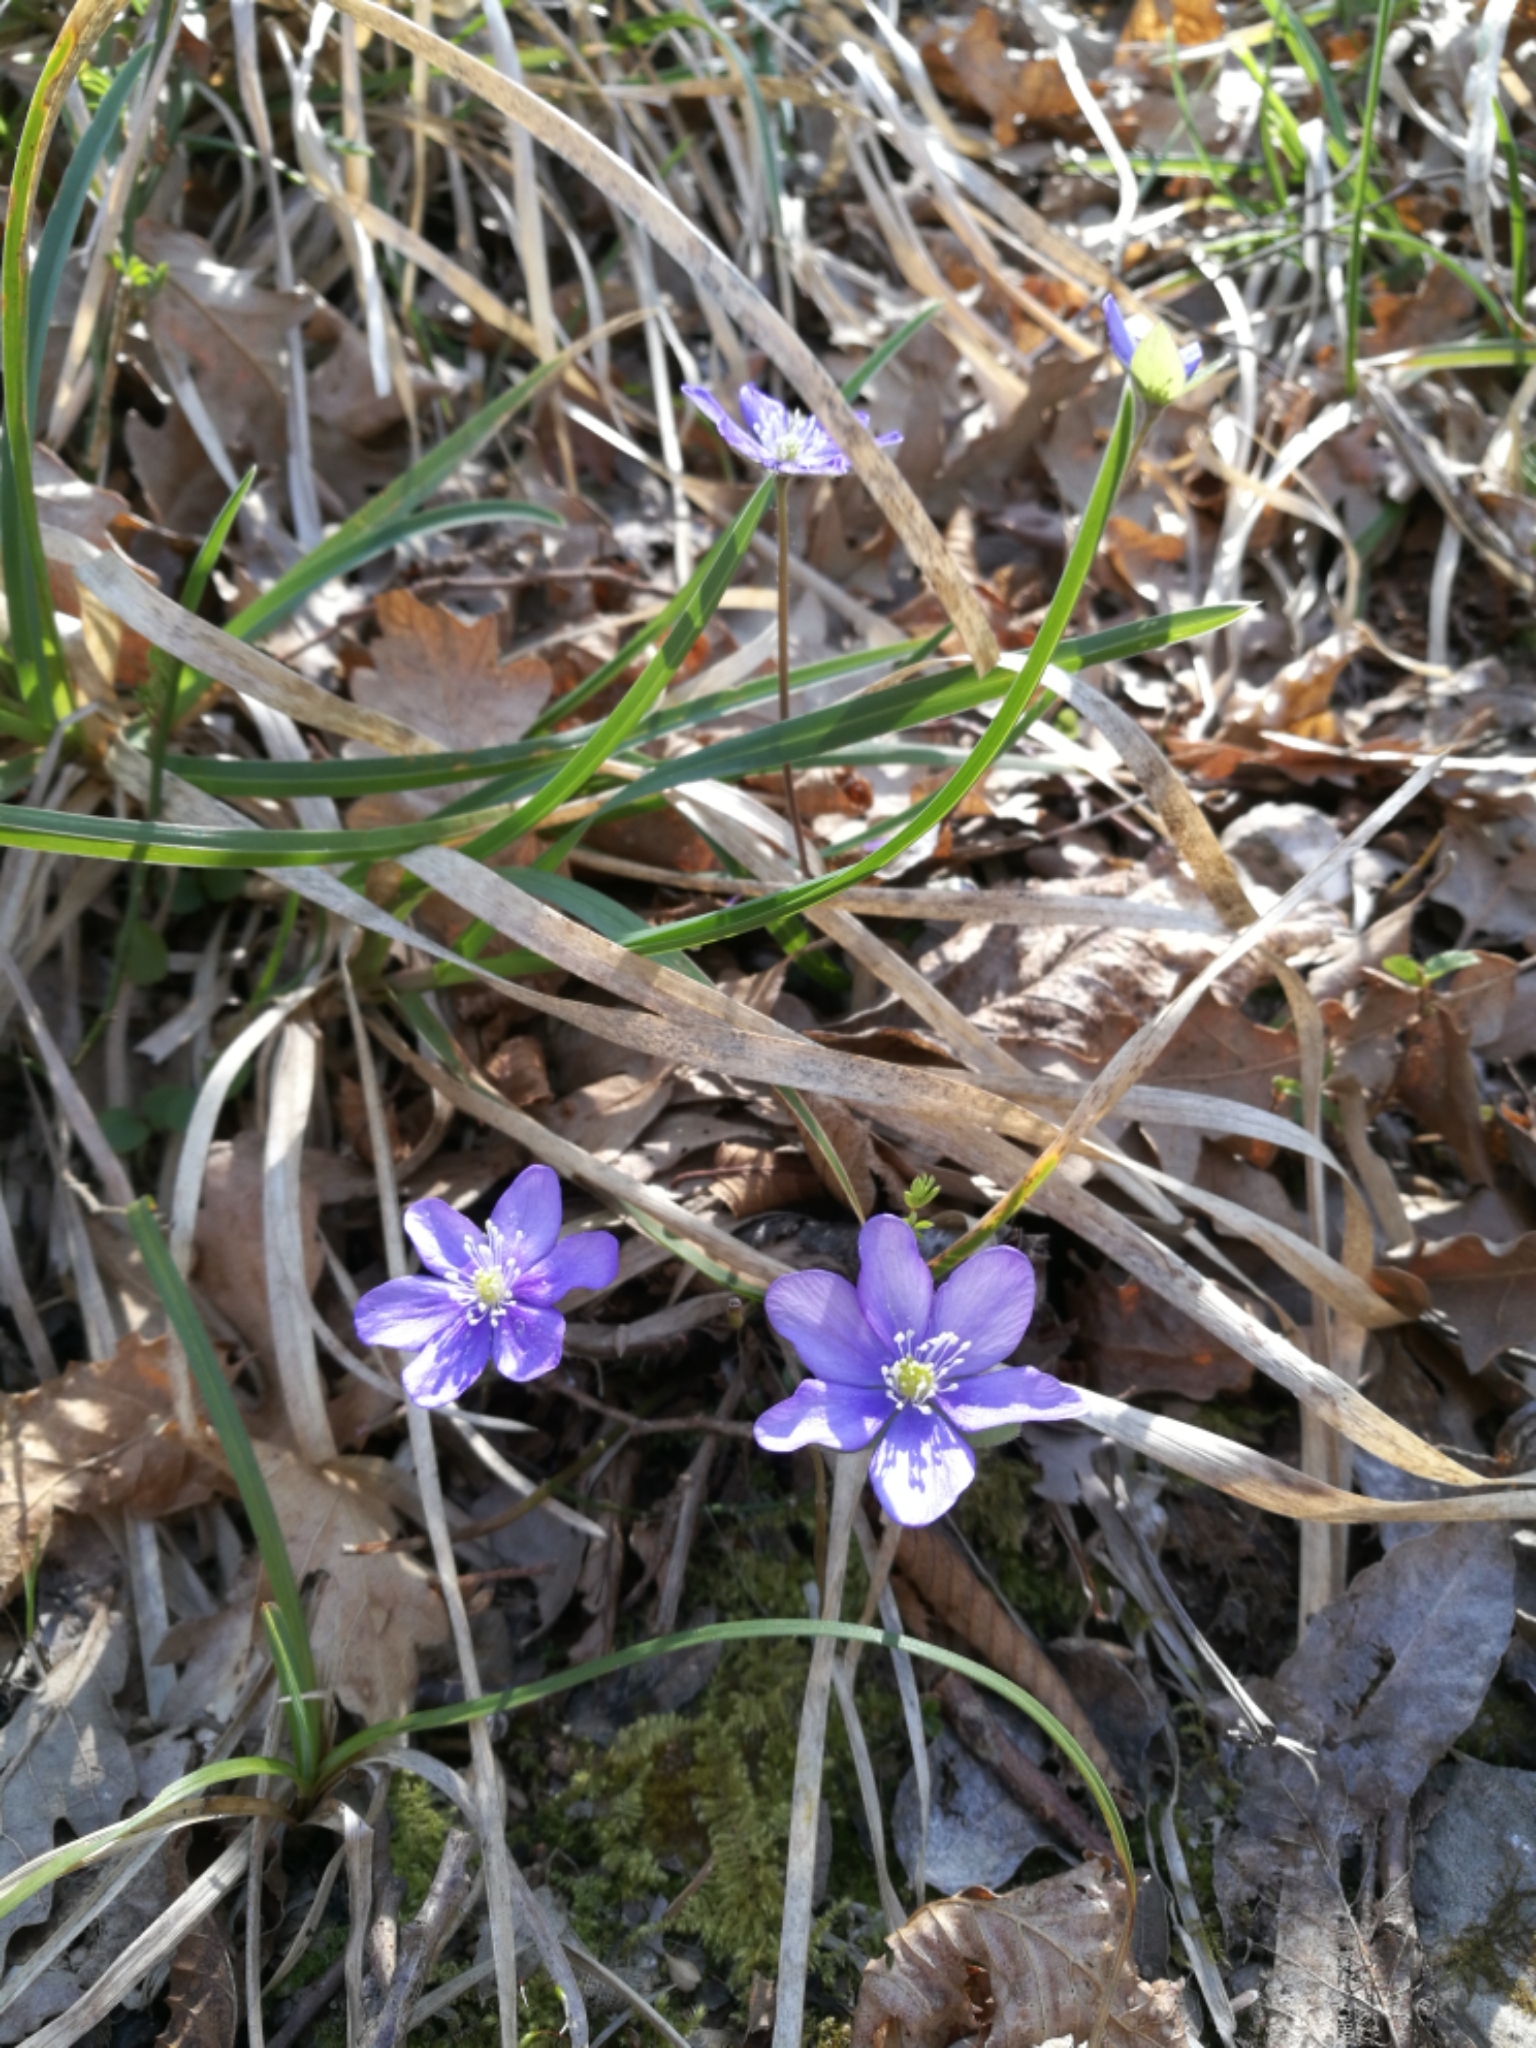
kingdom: Plantae
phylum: Tracheophyta
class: Magnoliopsida
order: Ranunculales
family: Ranunculaceae
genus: Hepatica
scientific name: Hepatica nobilis
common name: Liverleaf
